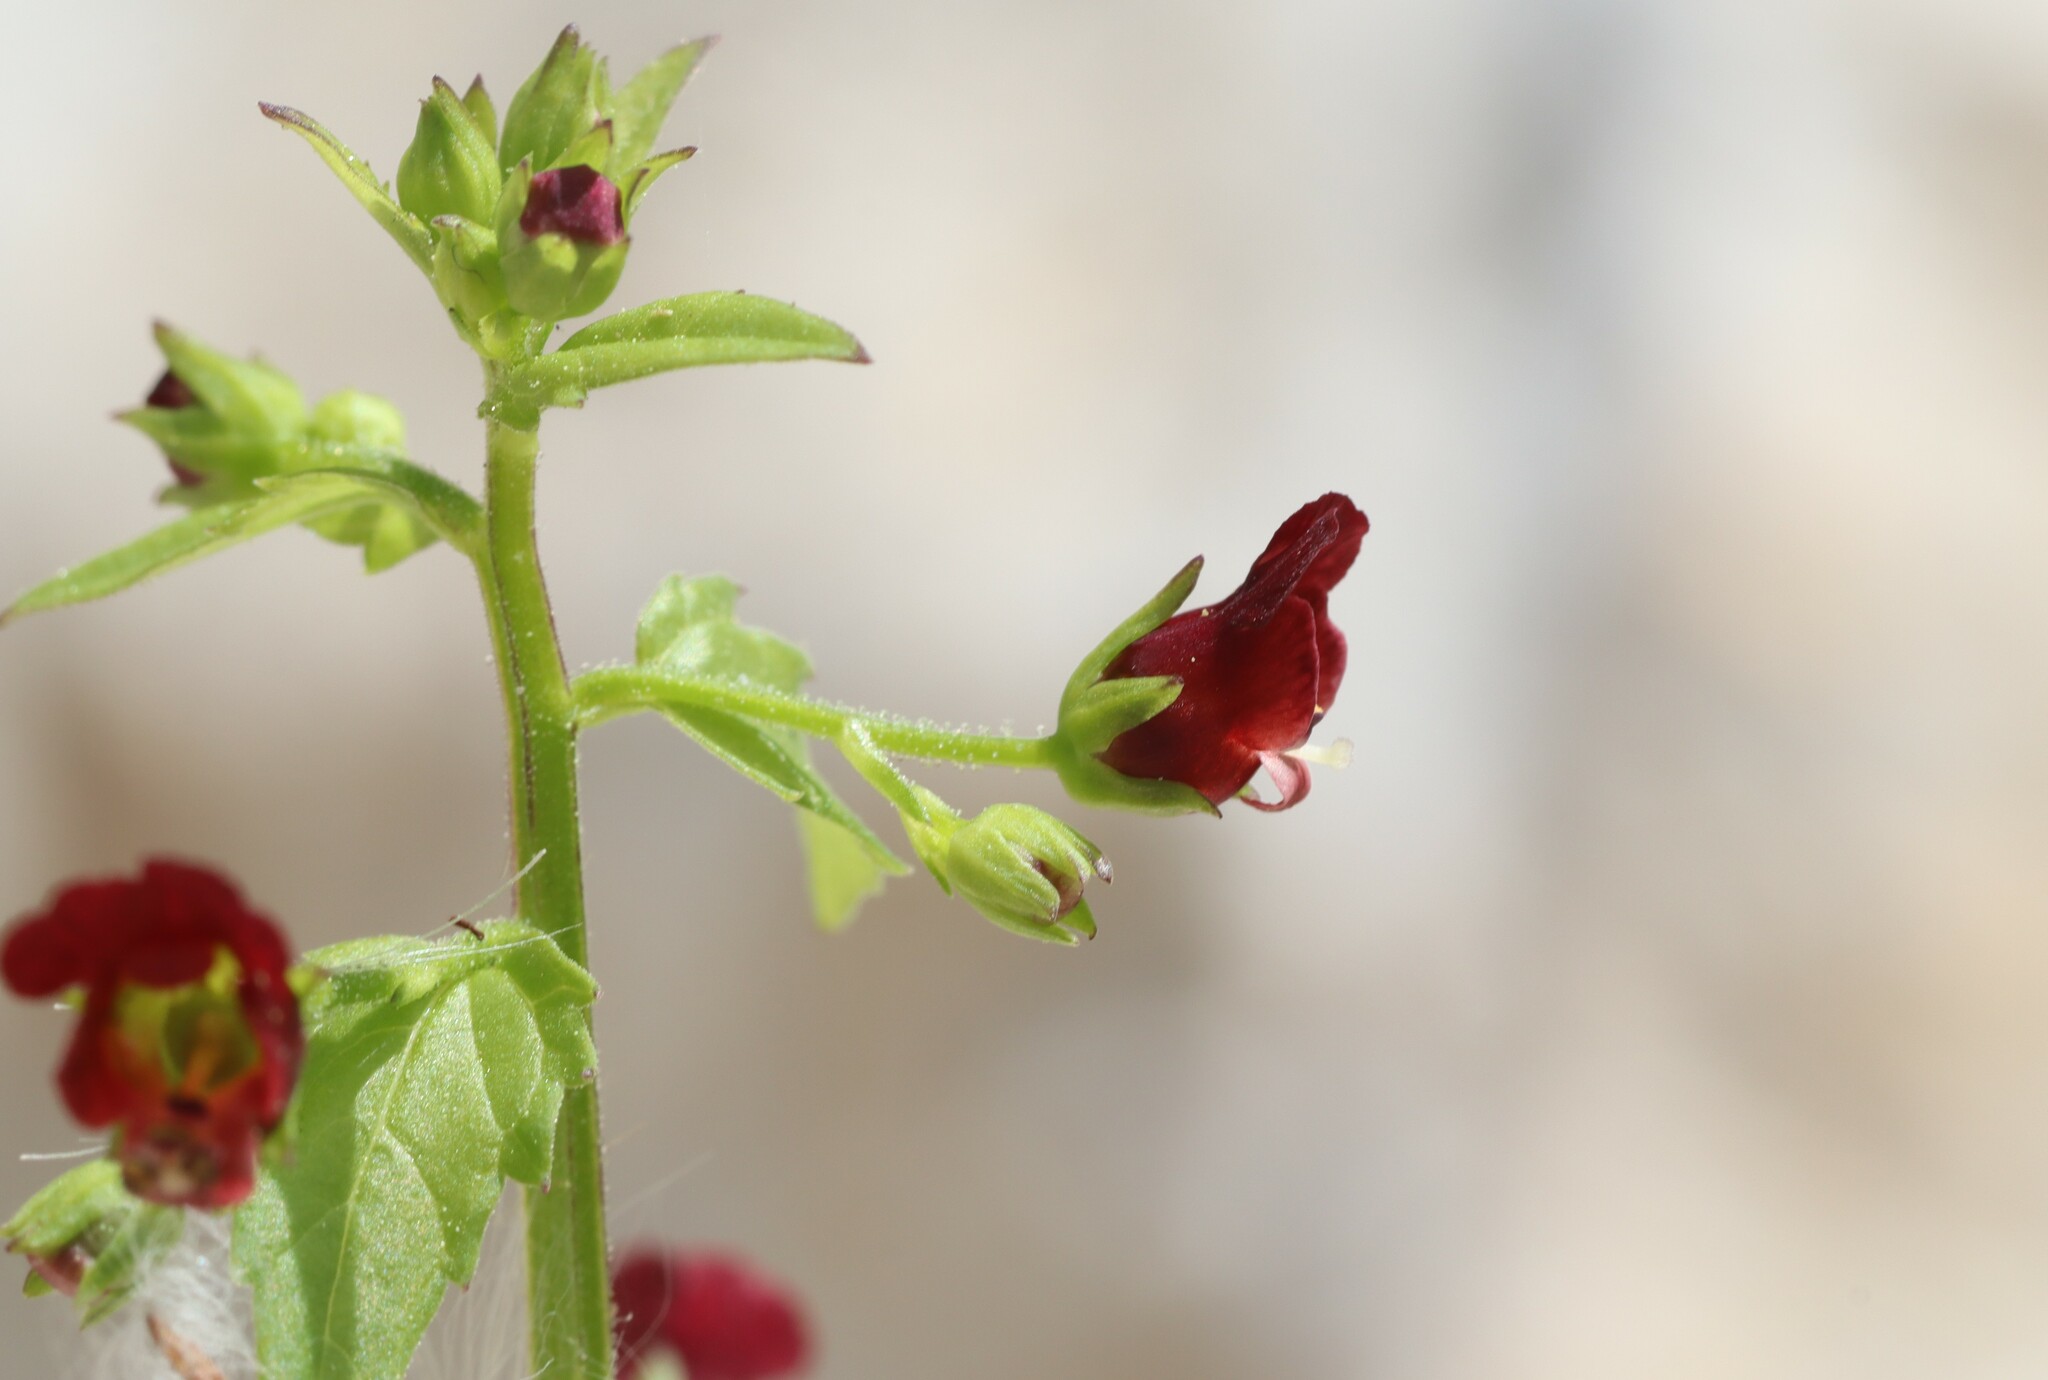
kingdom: Plantae
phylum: Tracheophyta
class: Magnoliopsida
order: Lamiales
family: Scrophulariaceae
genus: Scrophularia
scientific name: Scrophularia peregrina
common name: Mediterranean figwort
